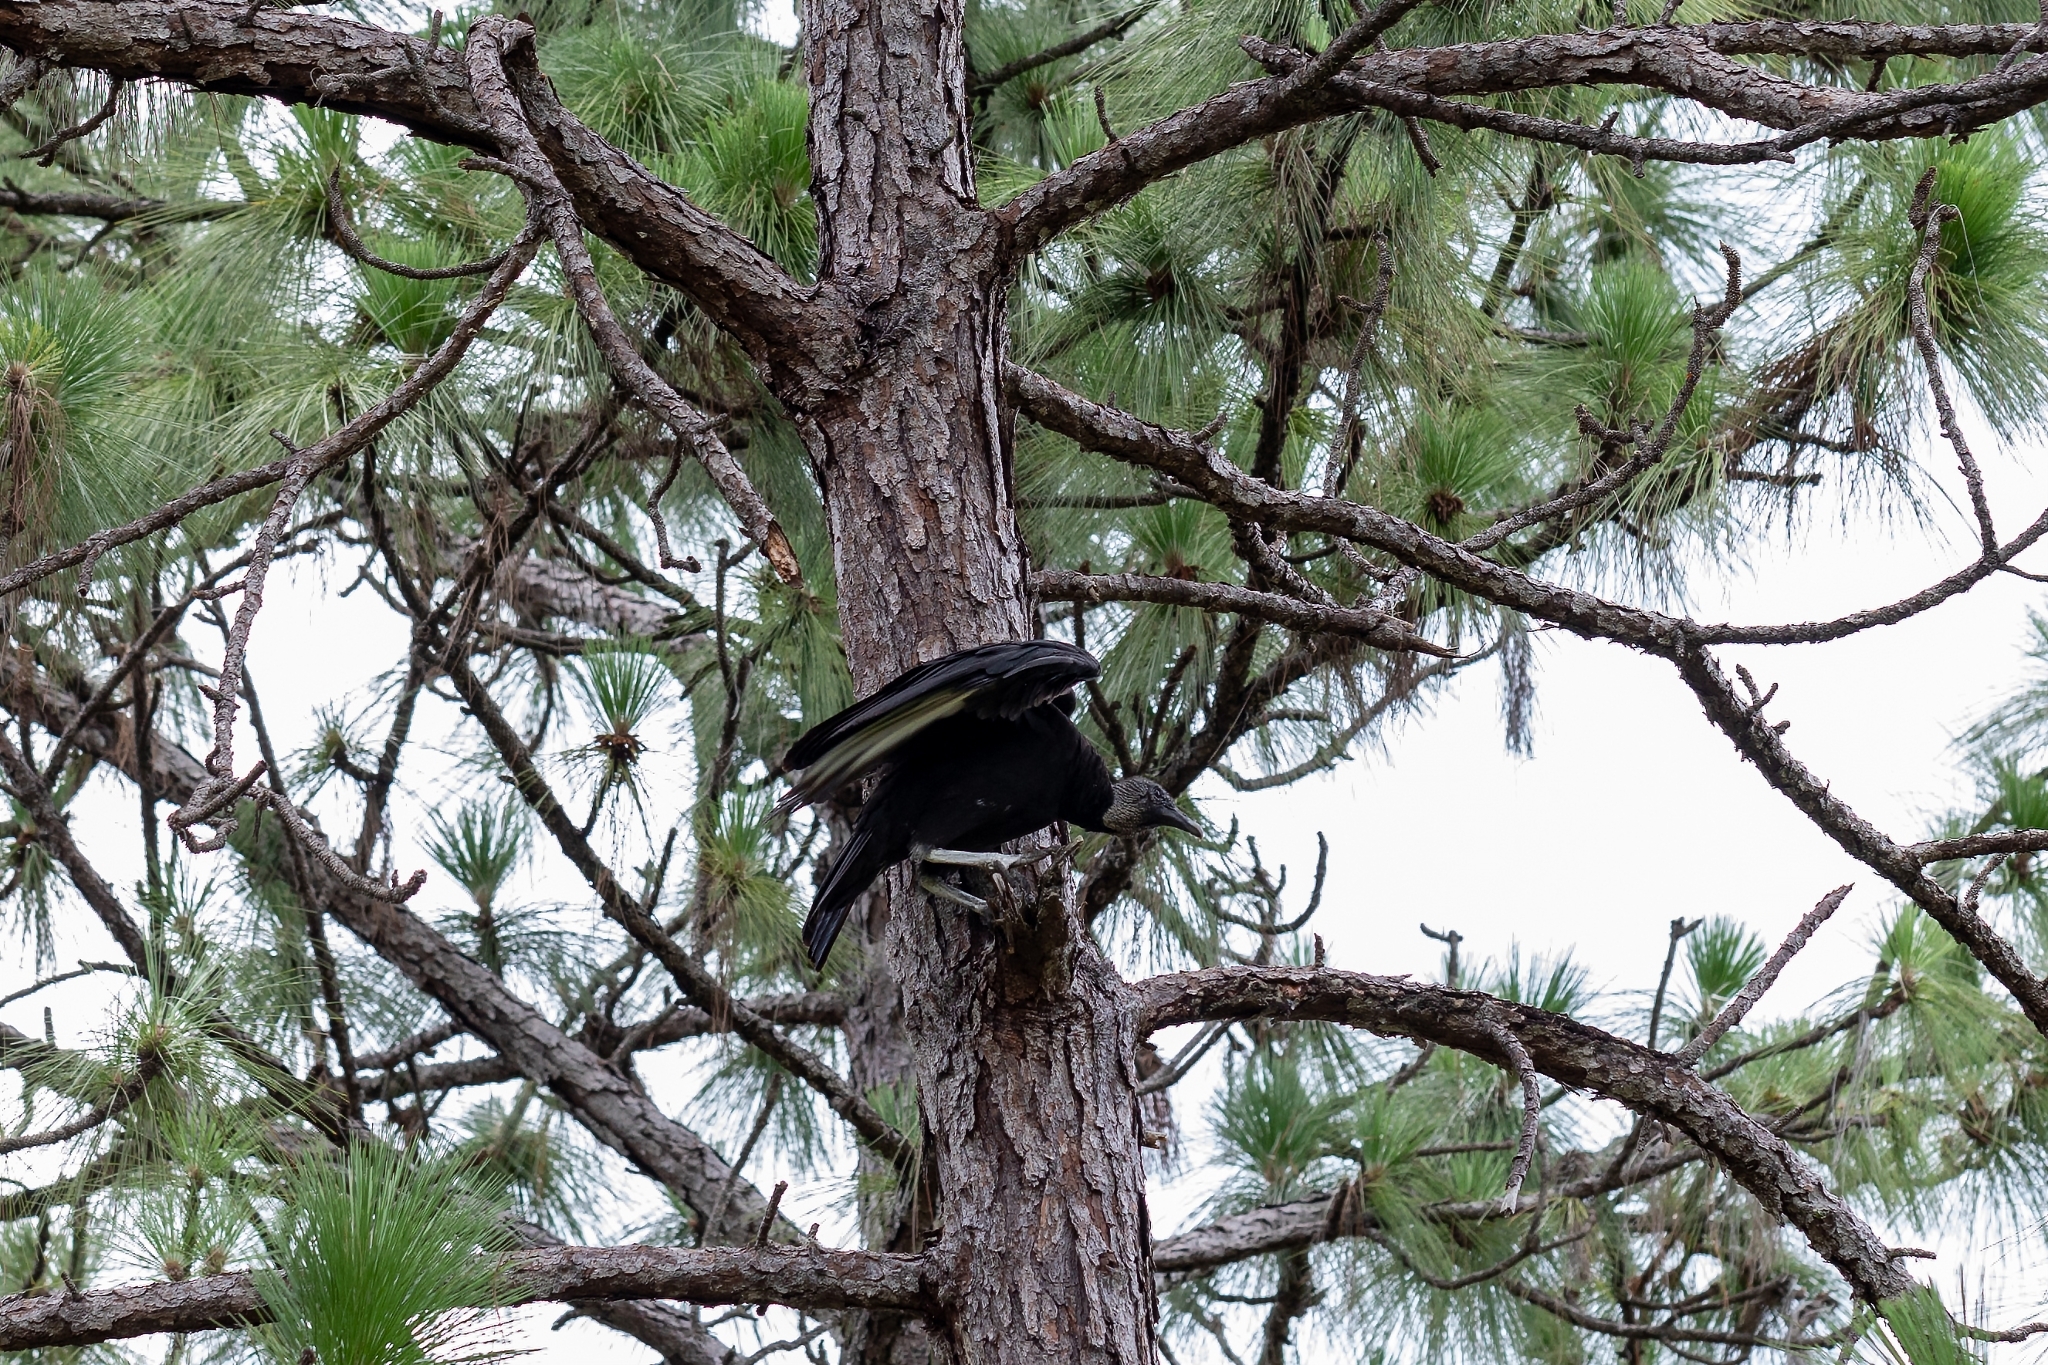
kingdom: Animalia
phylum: Chordata
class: Aves
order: Accipitriformes
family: Cathartidae
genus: Coragyps
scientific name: Coragyps atratus
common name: Black vulture
